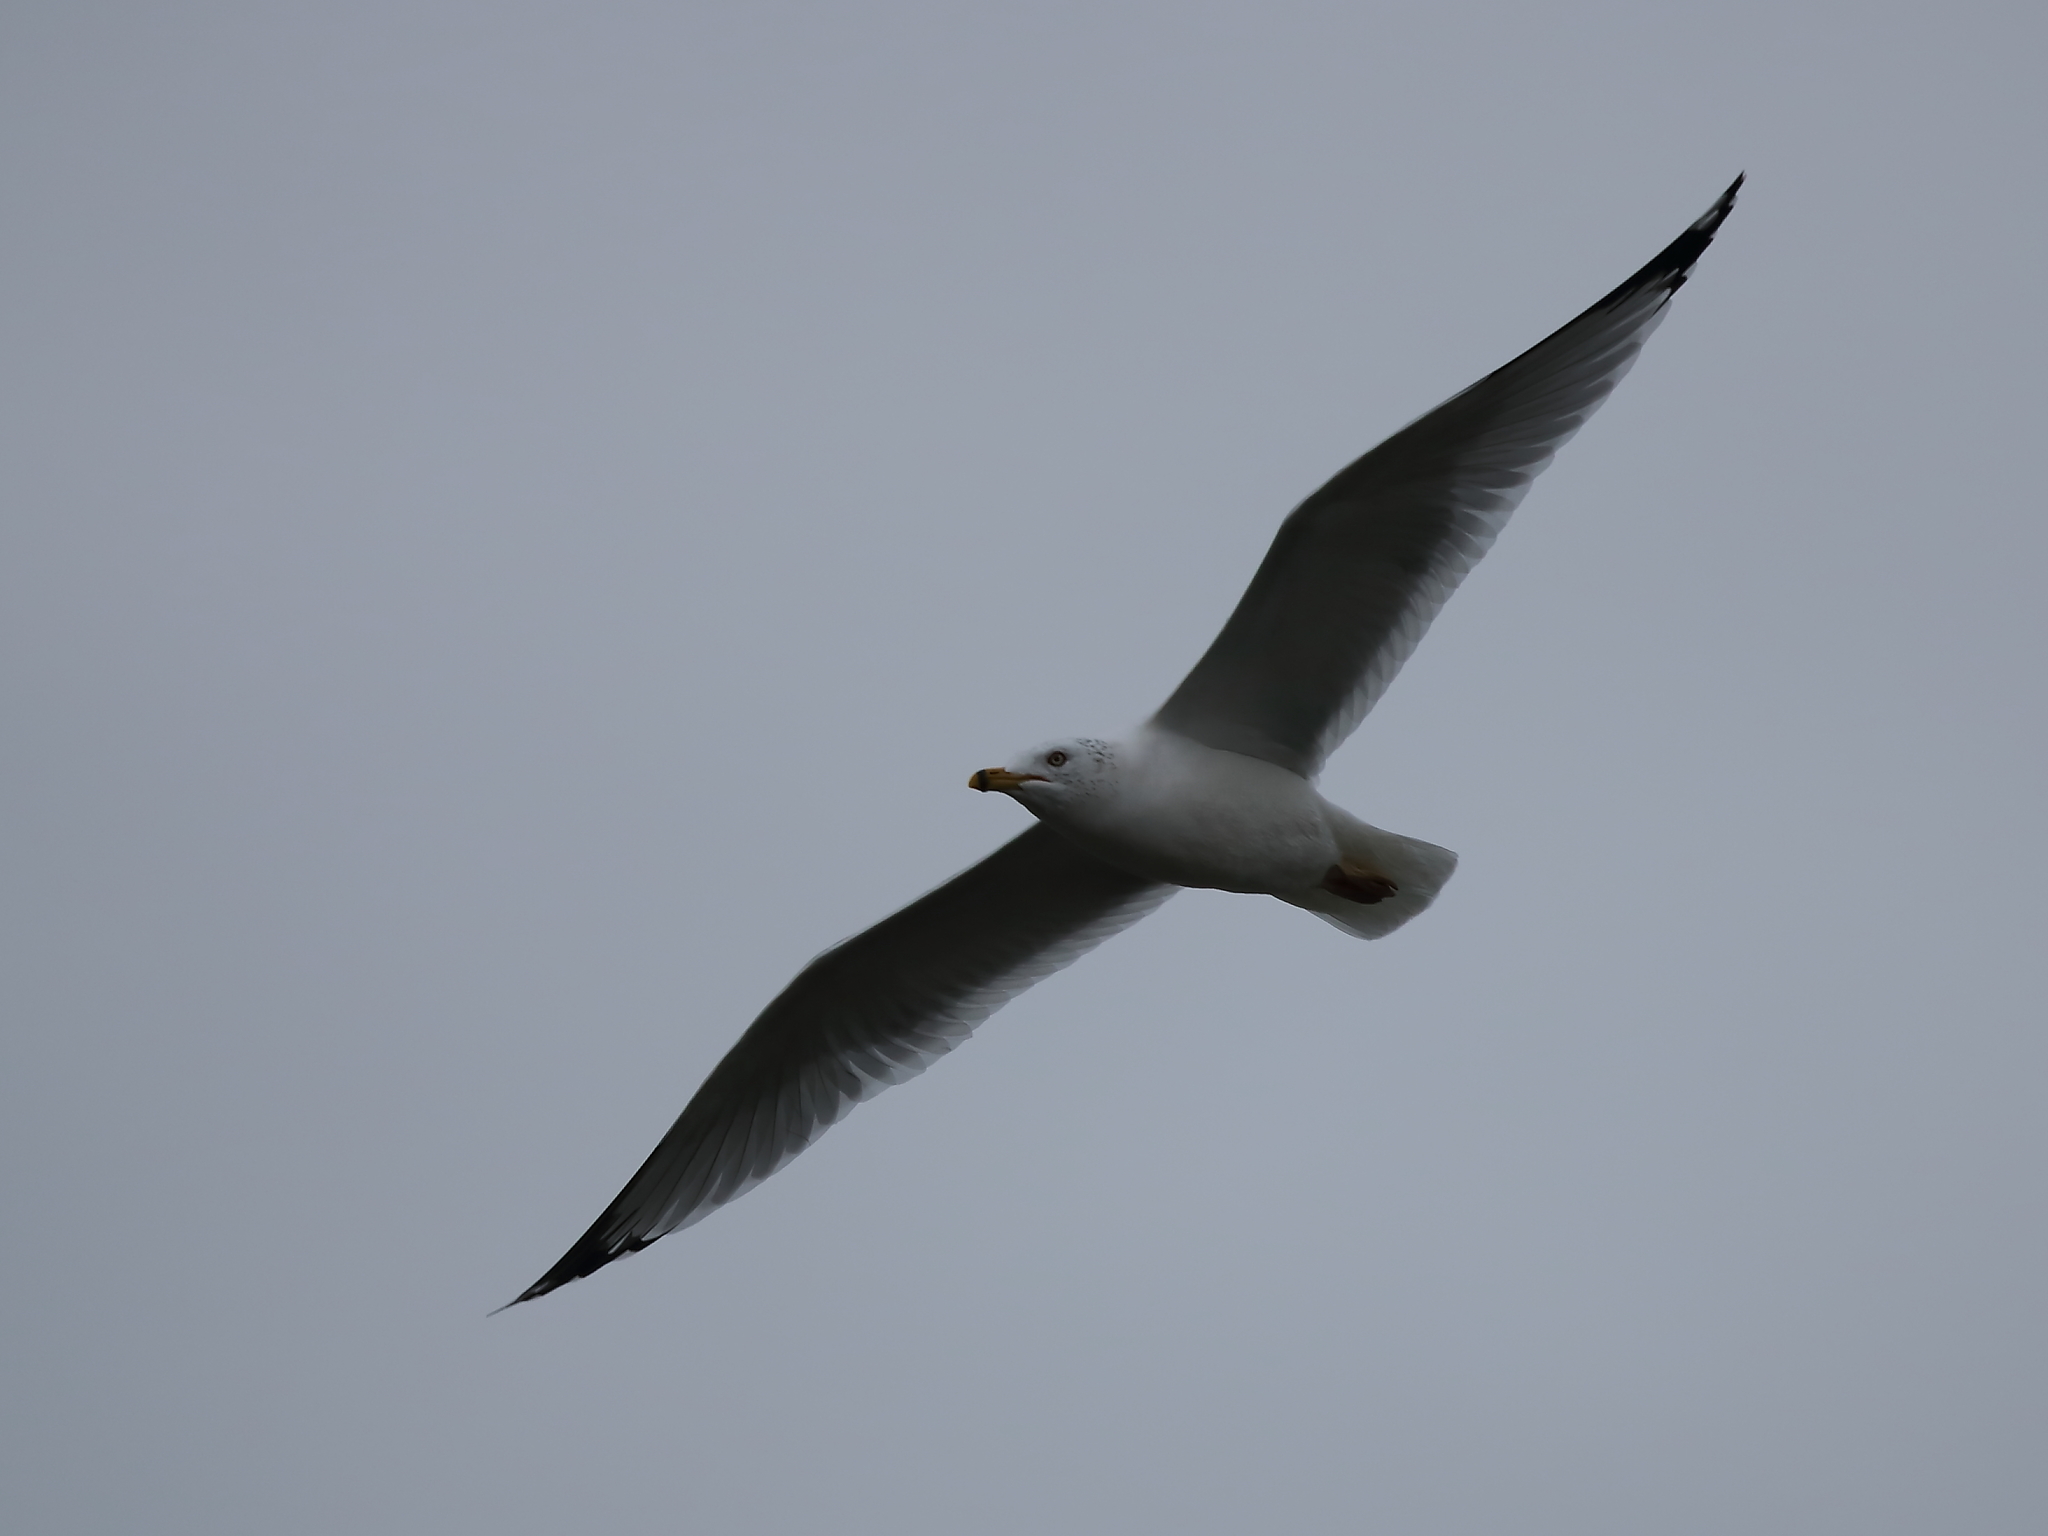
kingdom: Animalia
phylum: Chordata
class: Aves
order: Charadriiformes
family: Laridae
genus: Larus
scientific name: Larus delawarensis
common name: Ring-billed gull
